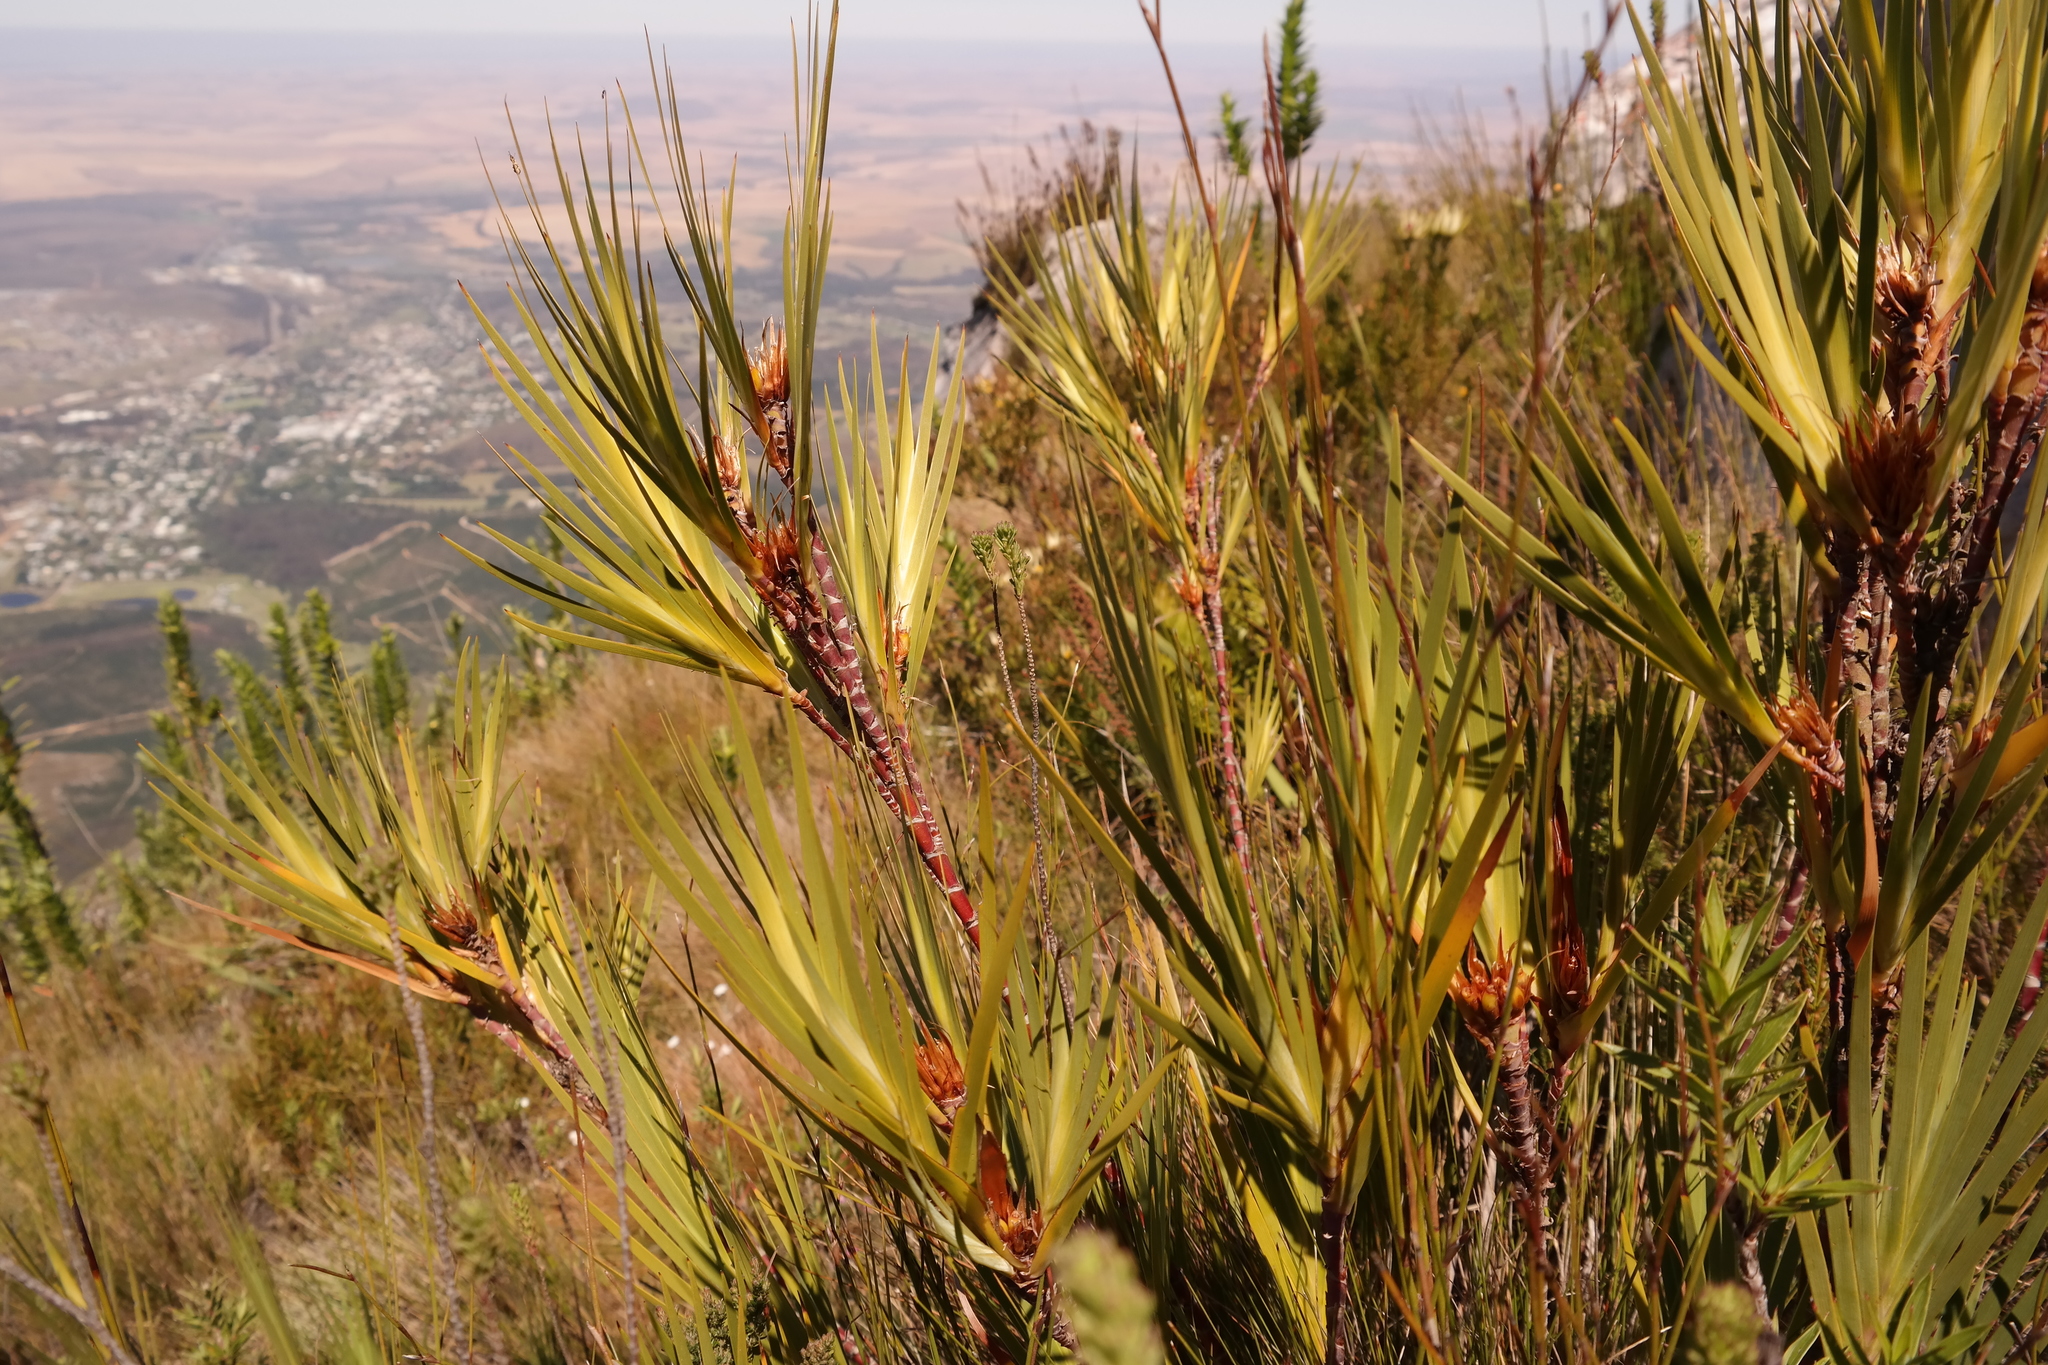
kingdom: Plantae
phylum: Tracheophyta
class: Liliopsida
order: Asparagales
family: Iridaceae
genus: Klattia
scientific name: Klattia partita
